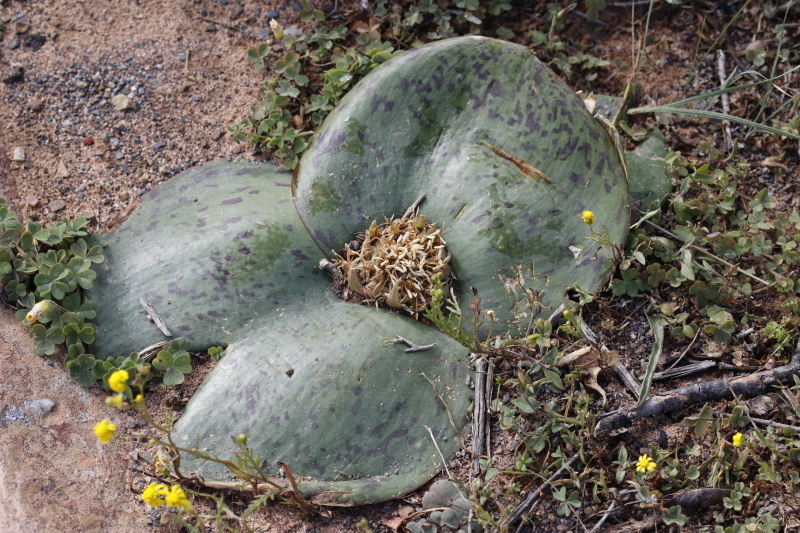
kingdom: Plantae
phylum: Tracheophyta
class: Liliopsida
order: Asparagales
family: Asparagaceae
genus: Massonia
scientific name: Massonia depressa
